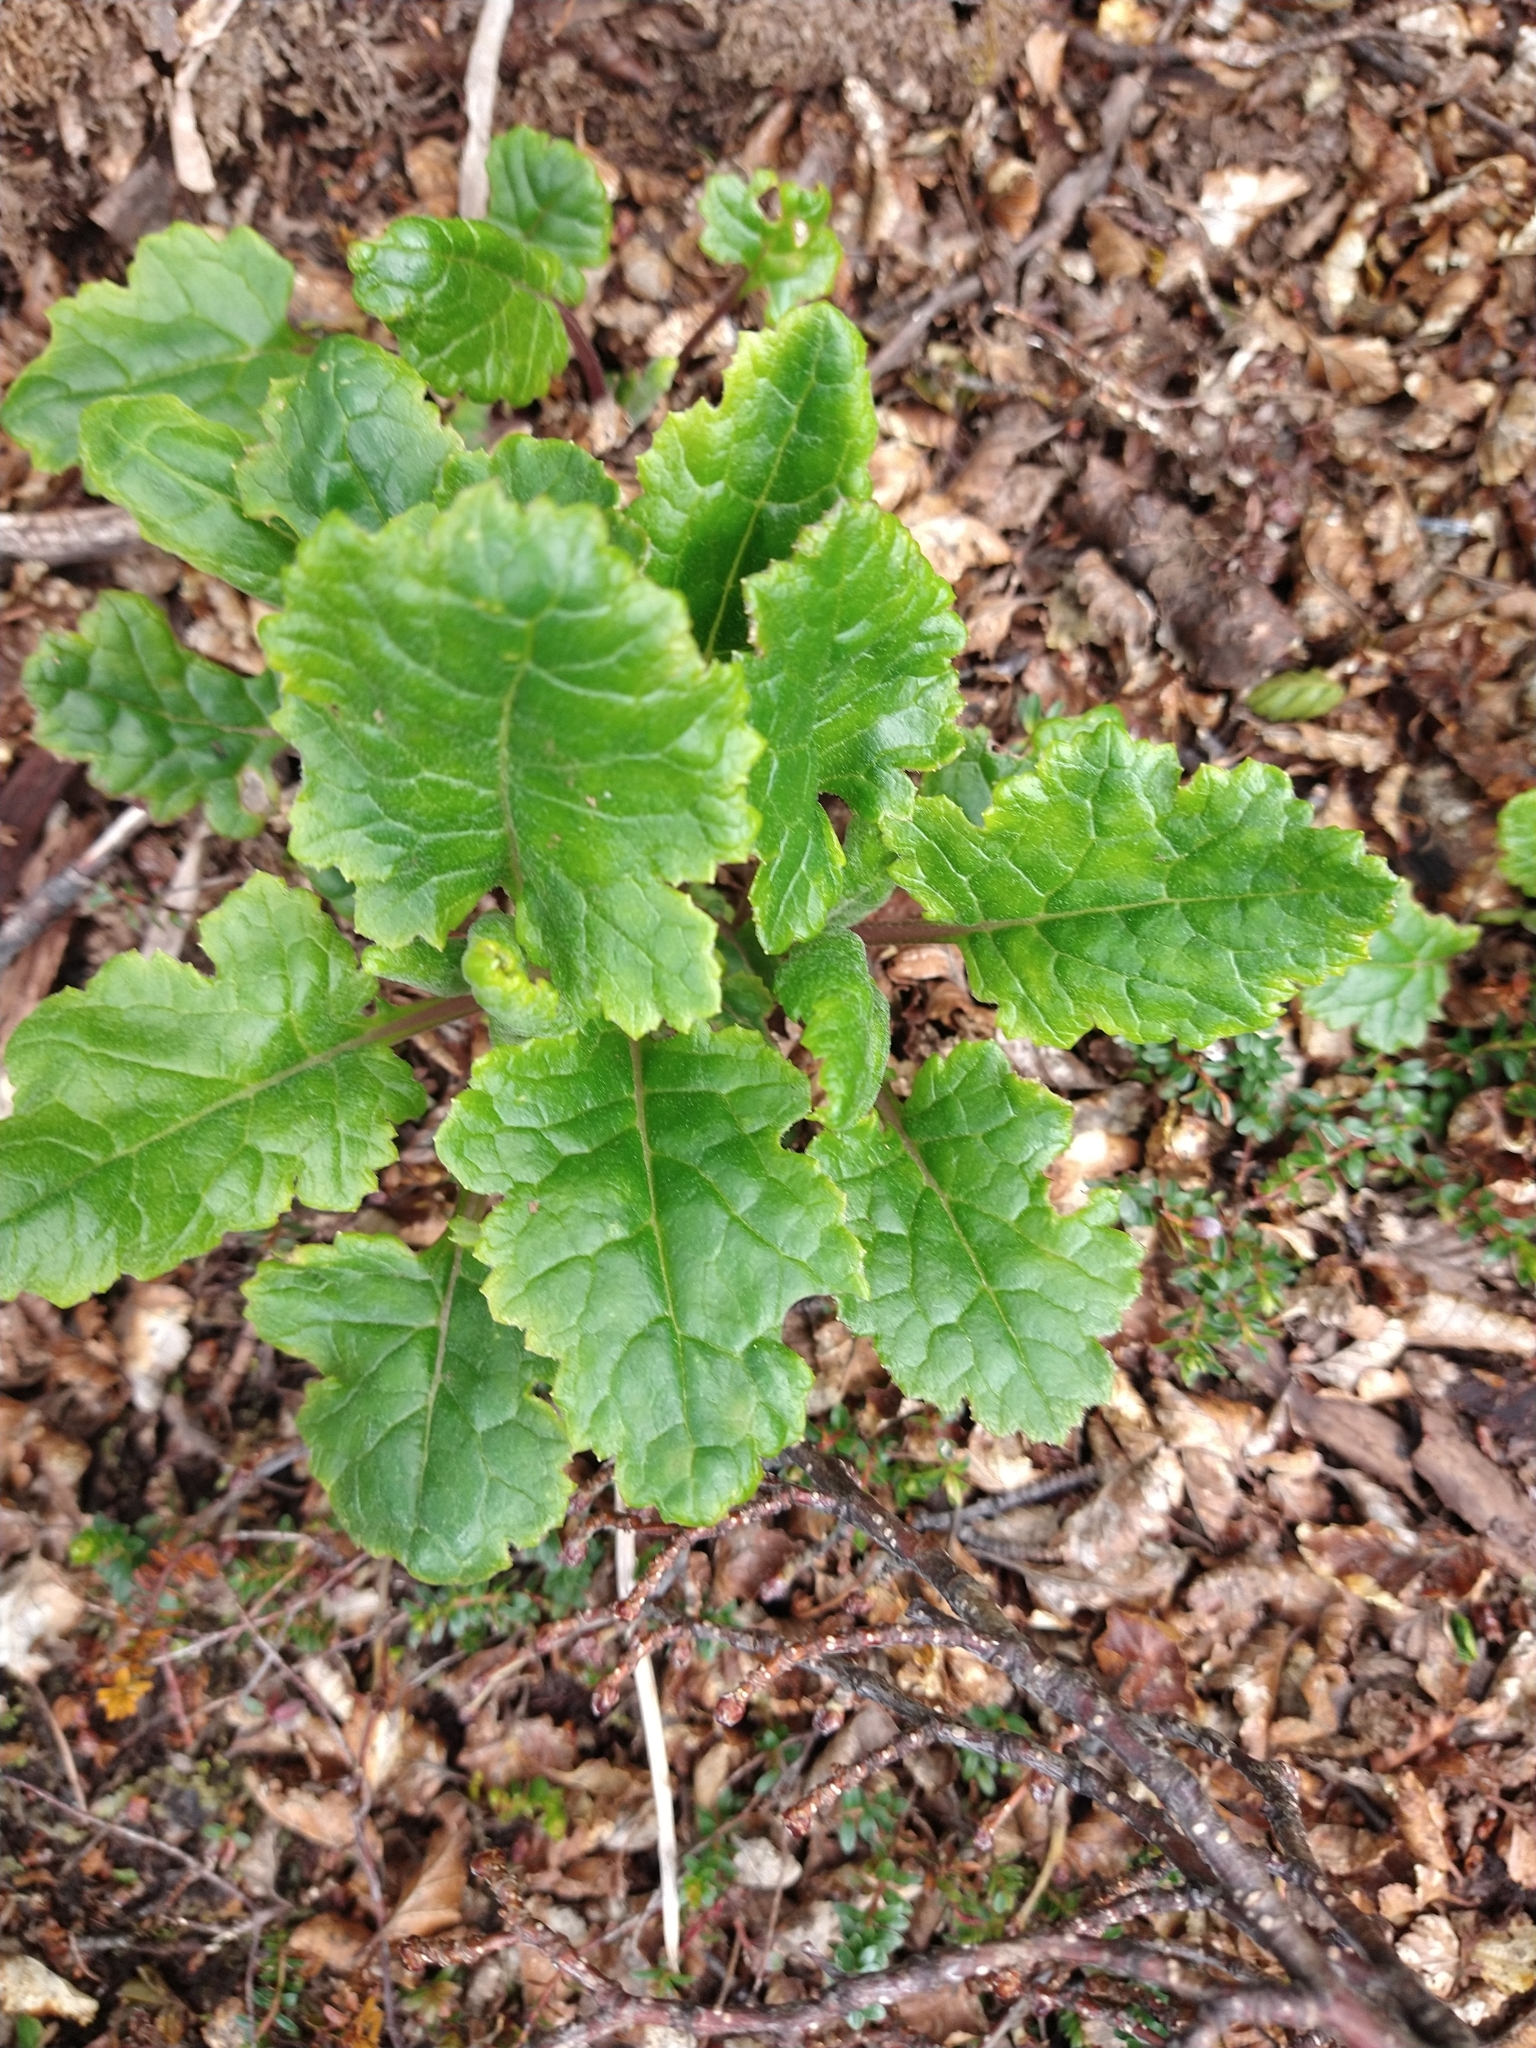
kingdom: Plantae
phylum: Tracheophyta
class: Magnoliopsida
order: Asterales
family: Asteraceae
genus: Iocenes
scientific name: Iocenes virens
